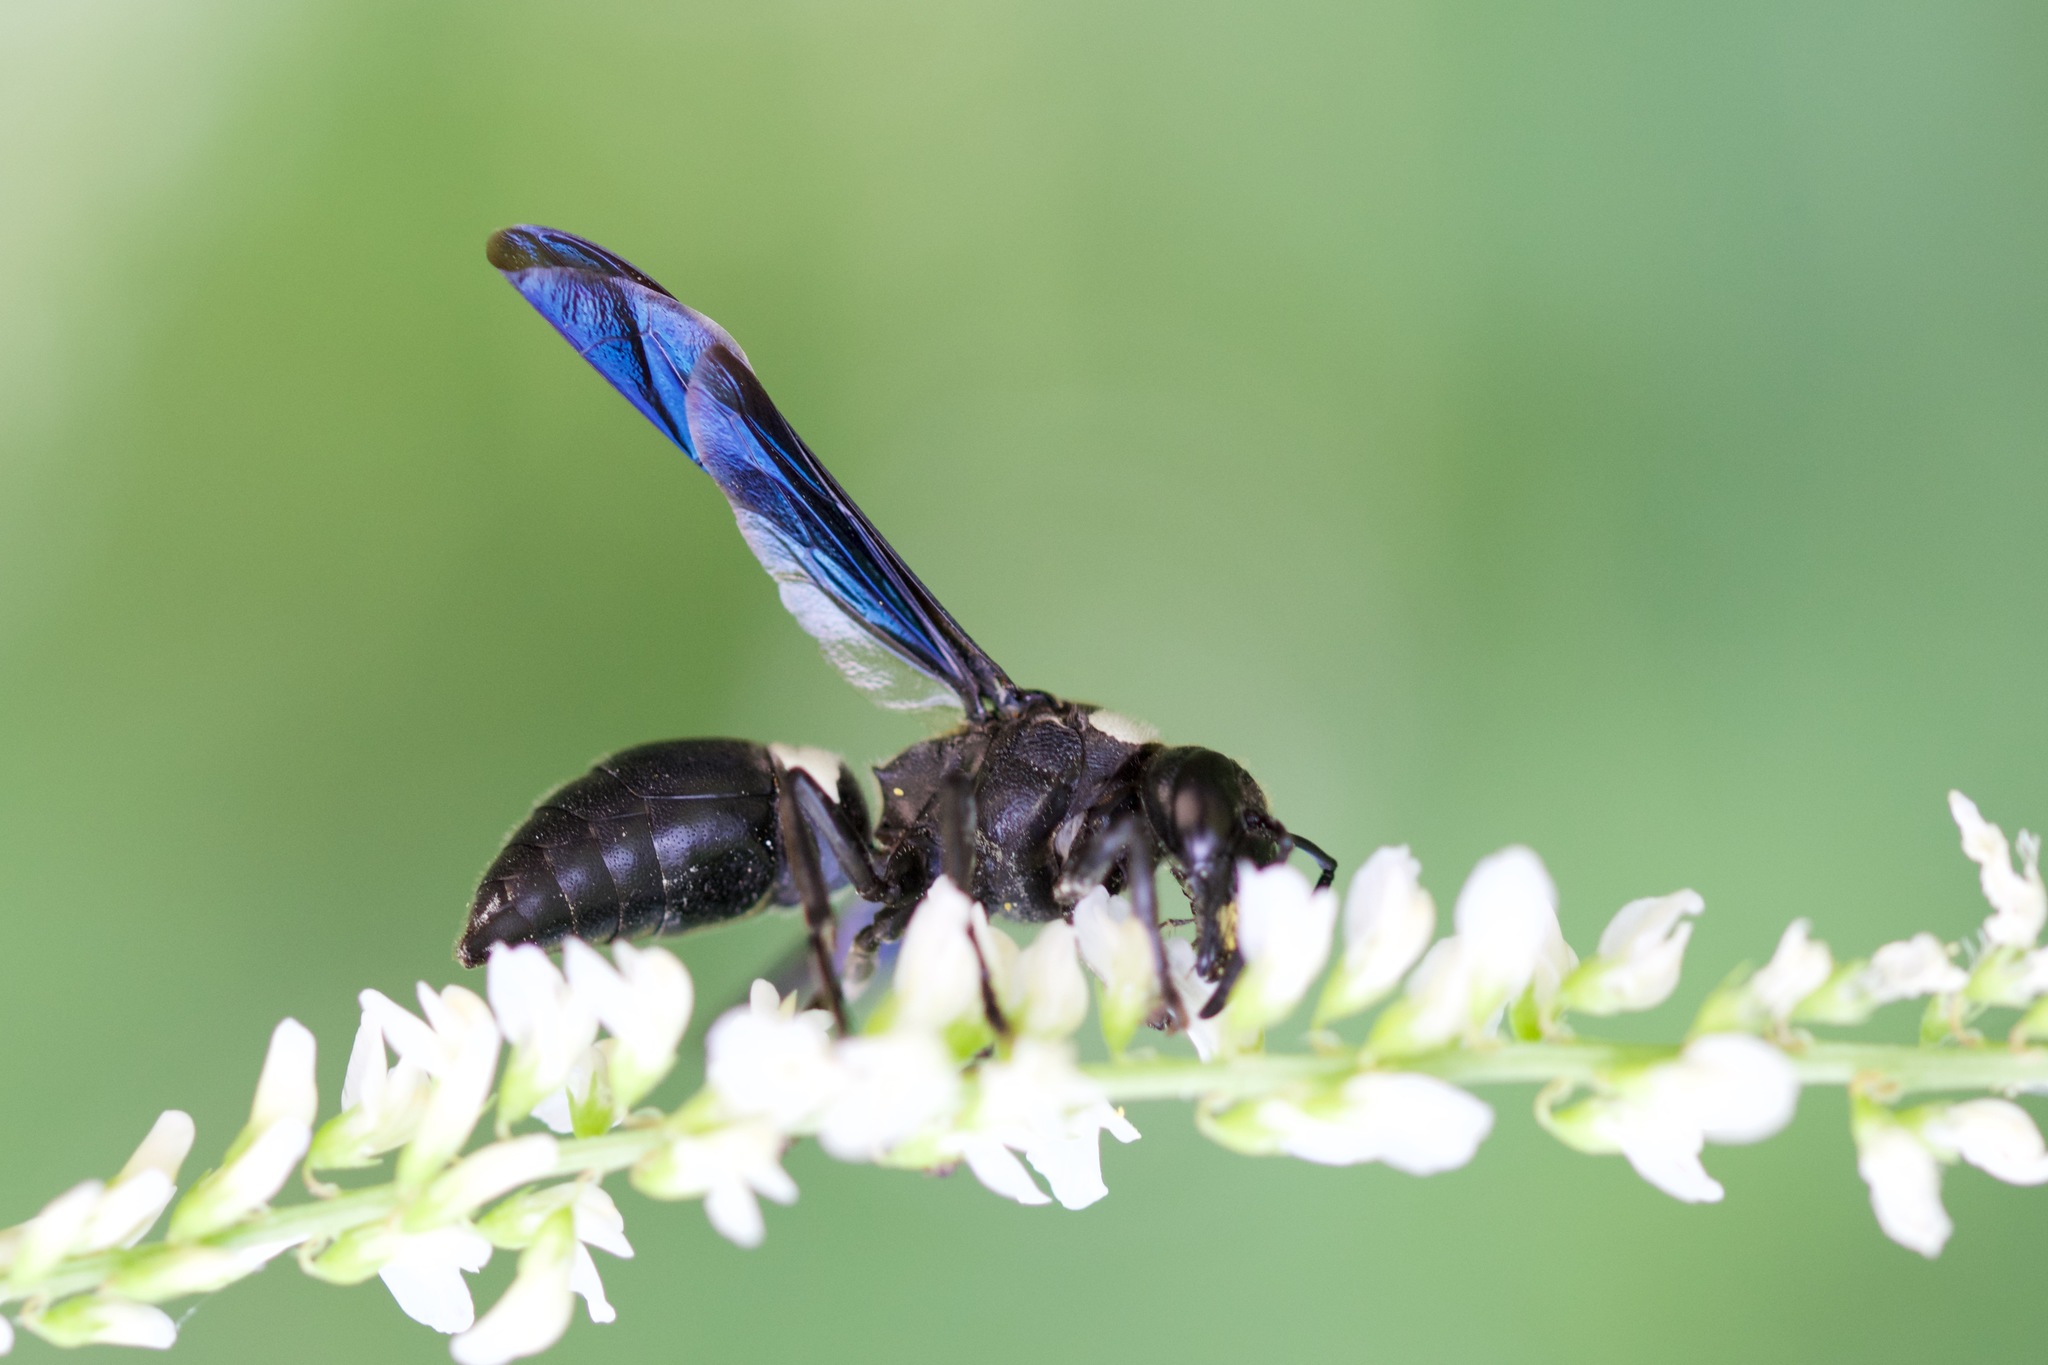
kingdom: Animalia
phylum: Arthropoda
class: Insecta
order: Hymenoptera
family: Eumenidae
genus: Monobia
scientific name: Monobia quadridens
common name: Four-toothed mason wasp
